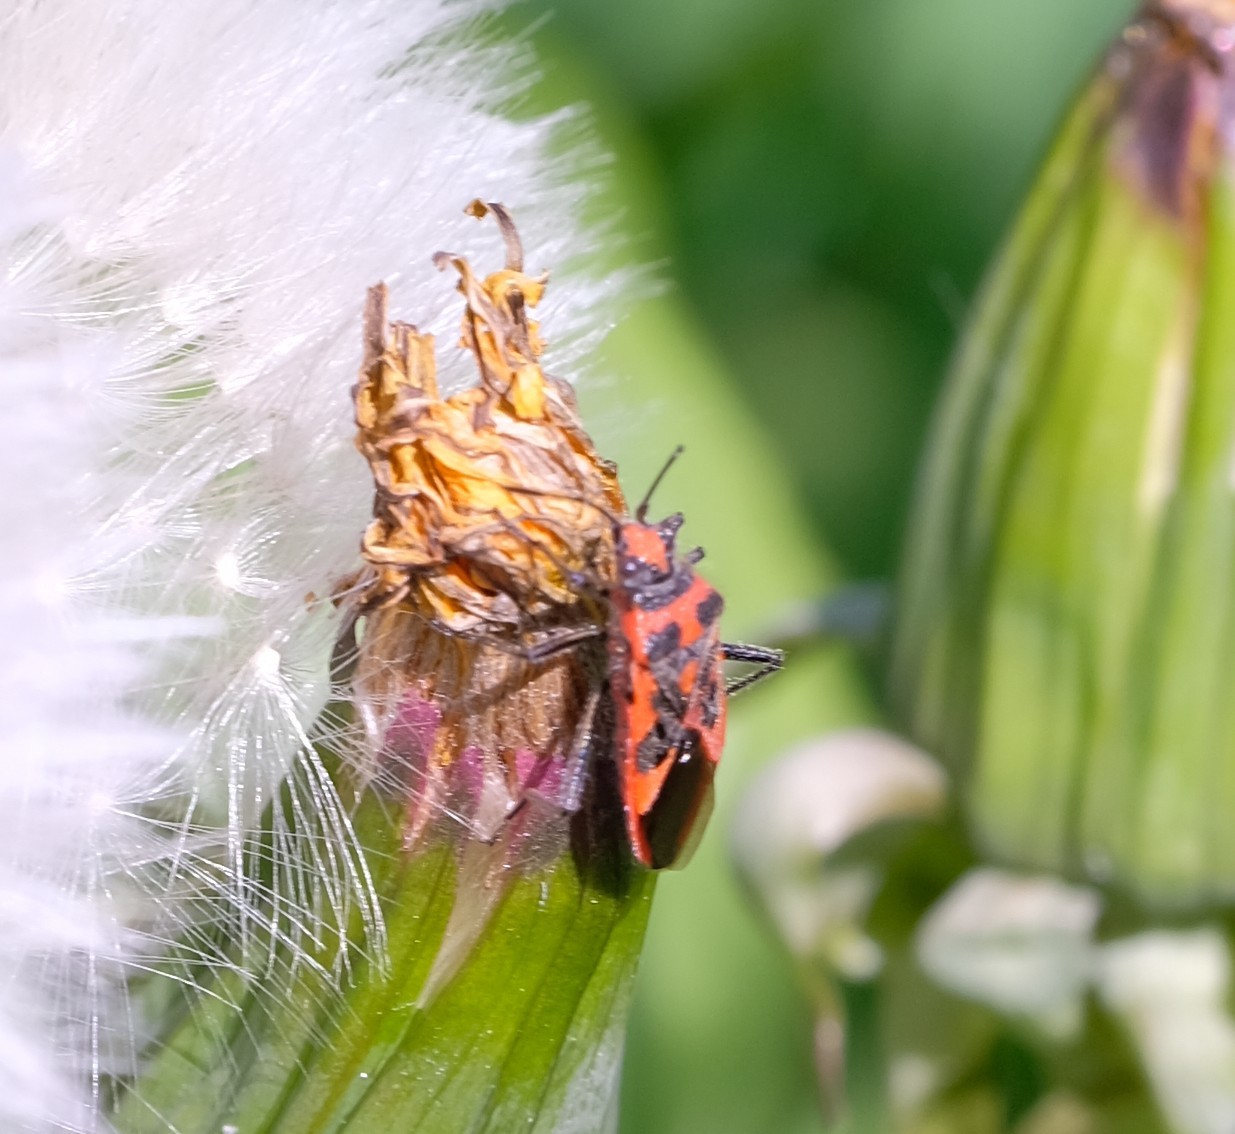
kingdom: Animalia
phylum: Arthropoda
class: Insecta
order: Hemiptera
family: Rhopalidae
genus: Corizus
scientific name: Corizus hyoscyami
